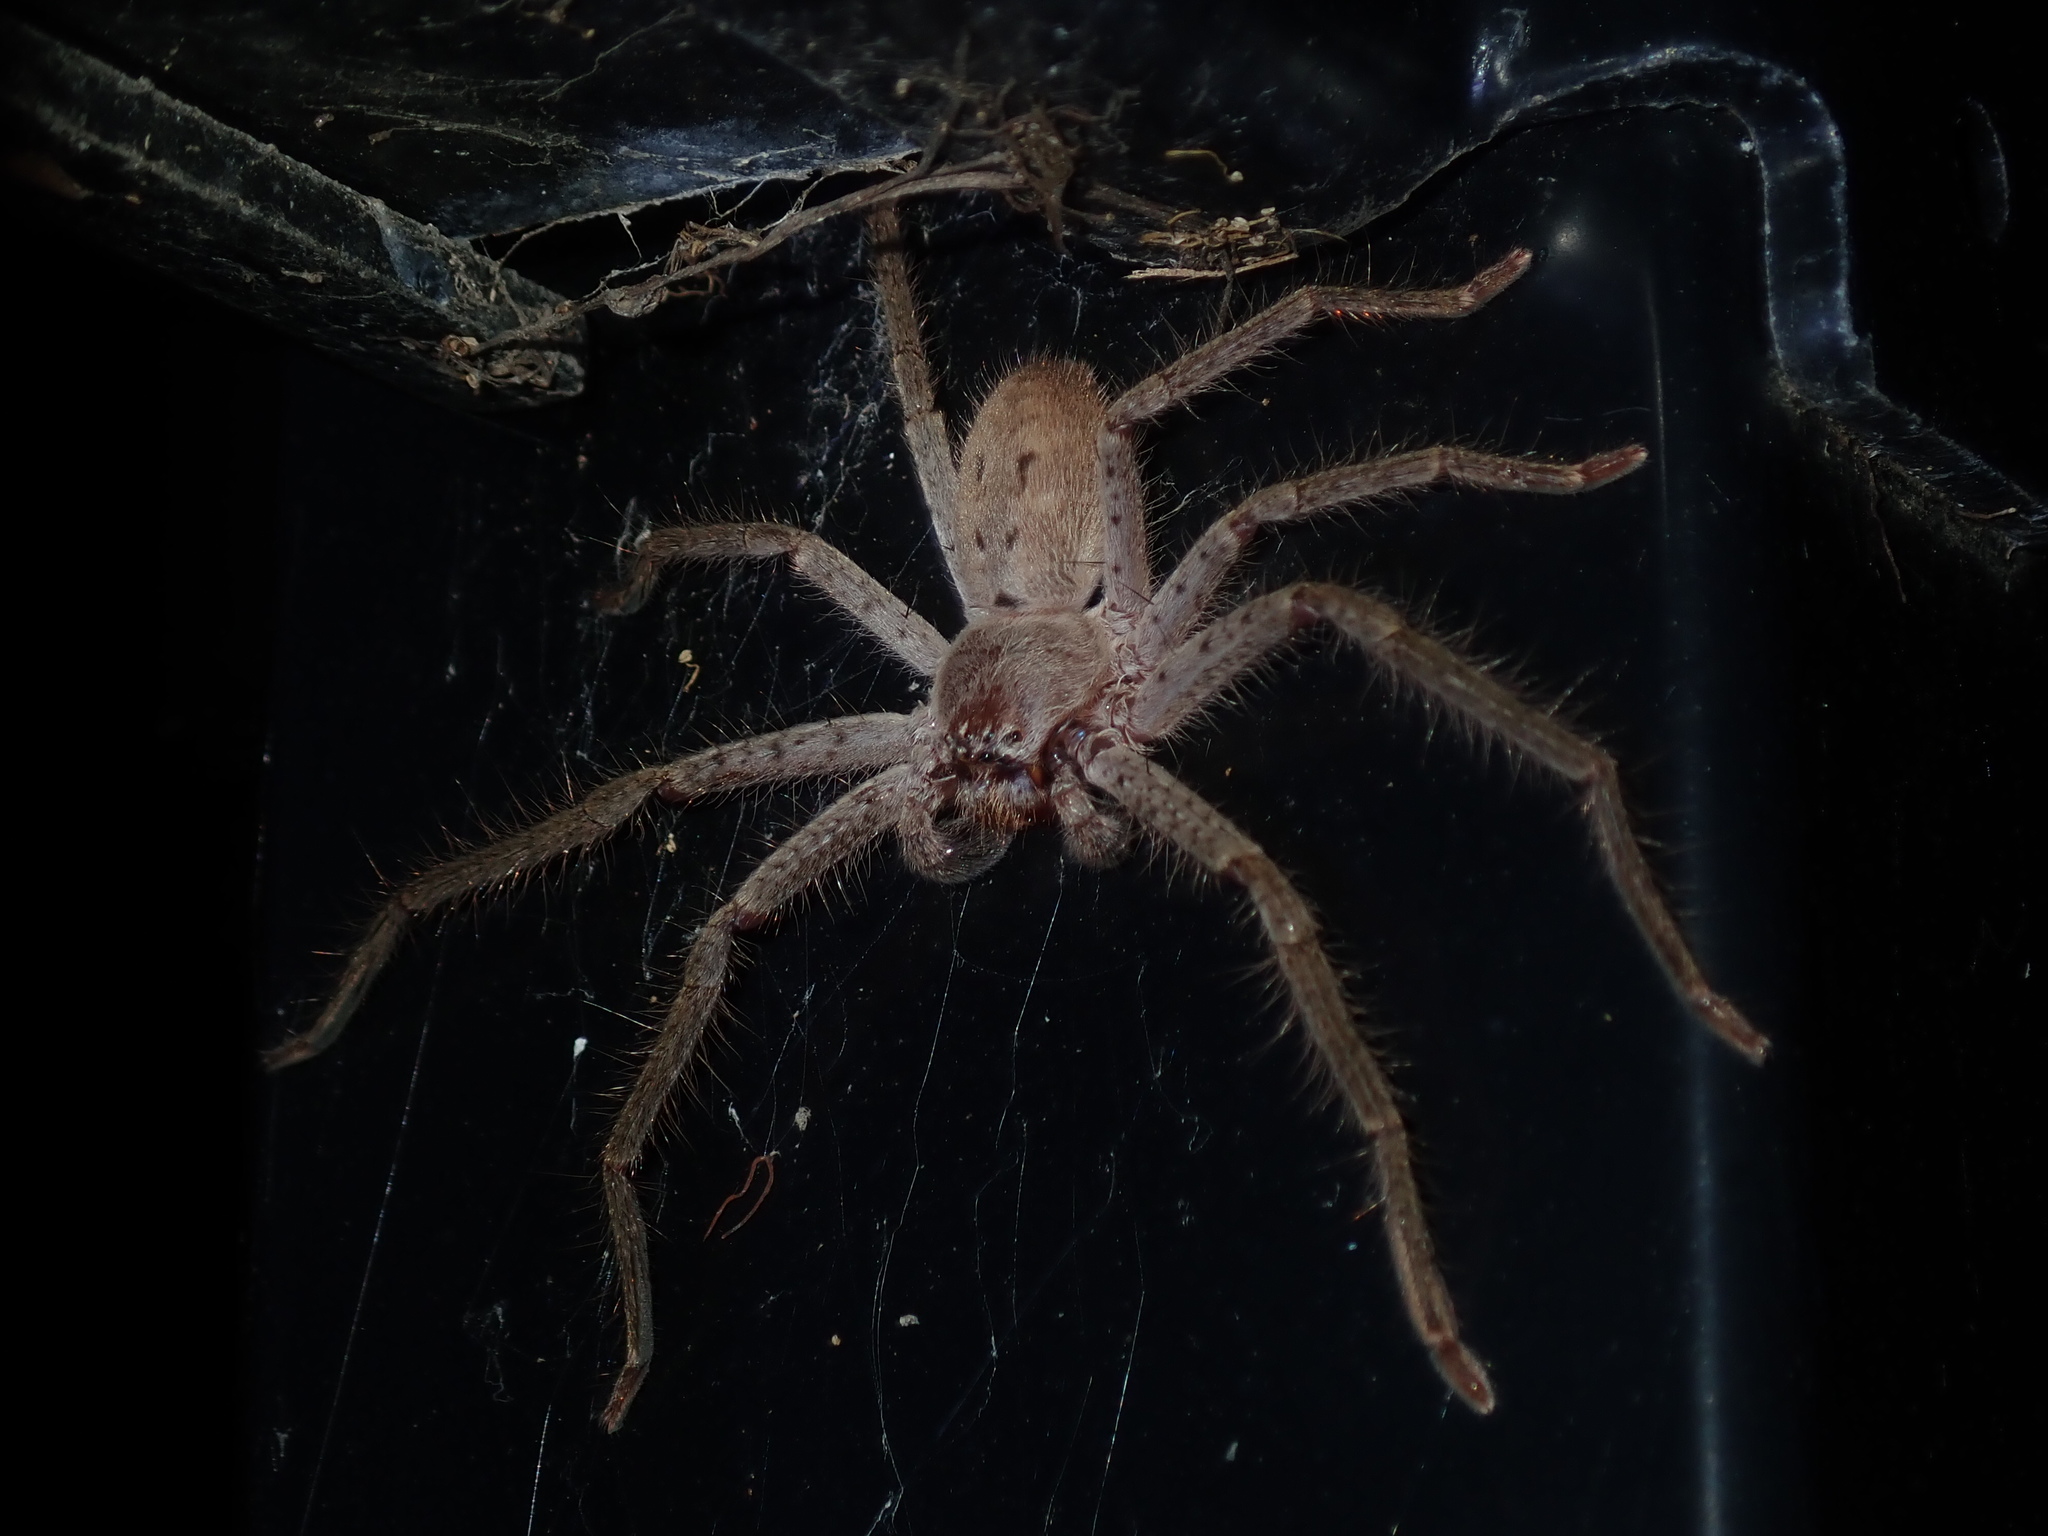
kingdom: Animalia
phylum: Arthropoda
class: Arachnida
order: Araneae
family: Sparassidae
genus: Isopeda
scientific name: Isopeda villosa
